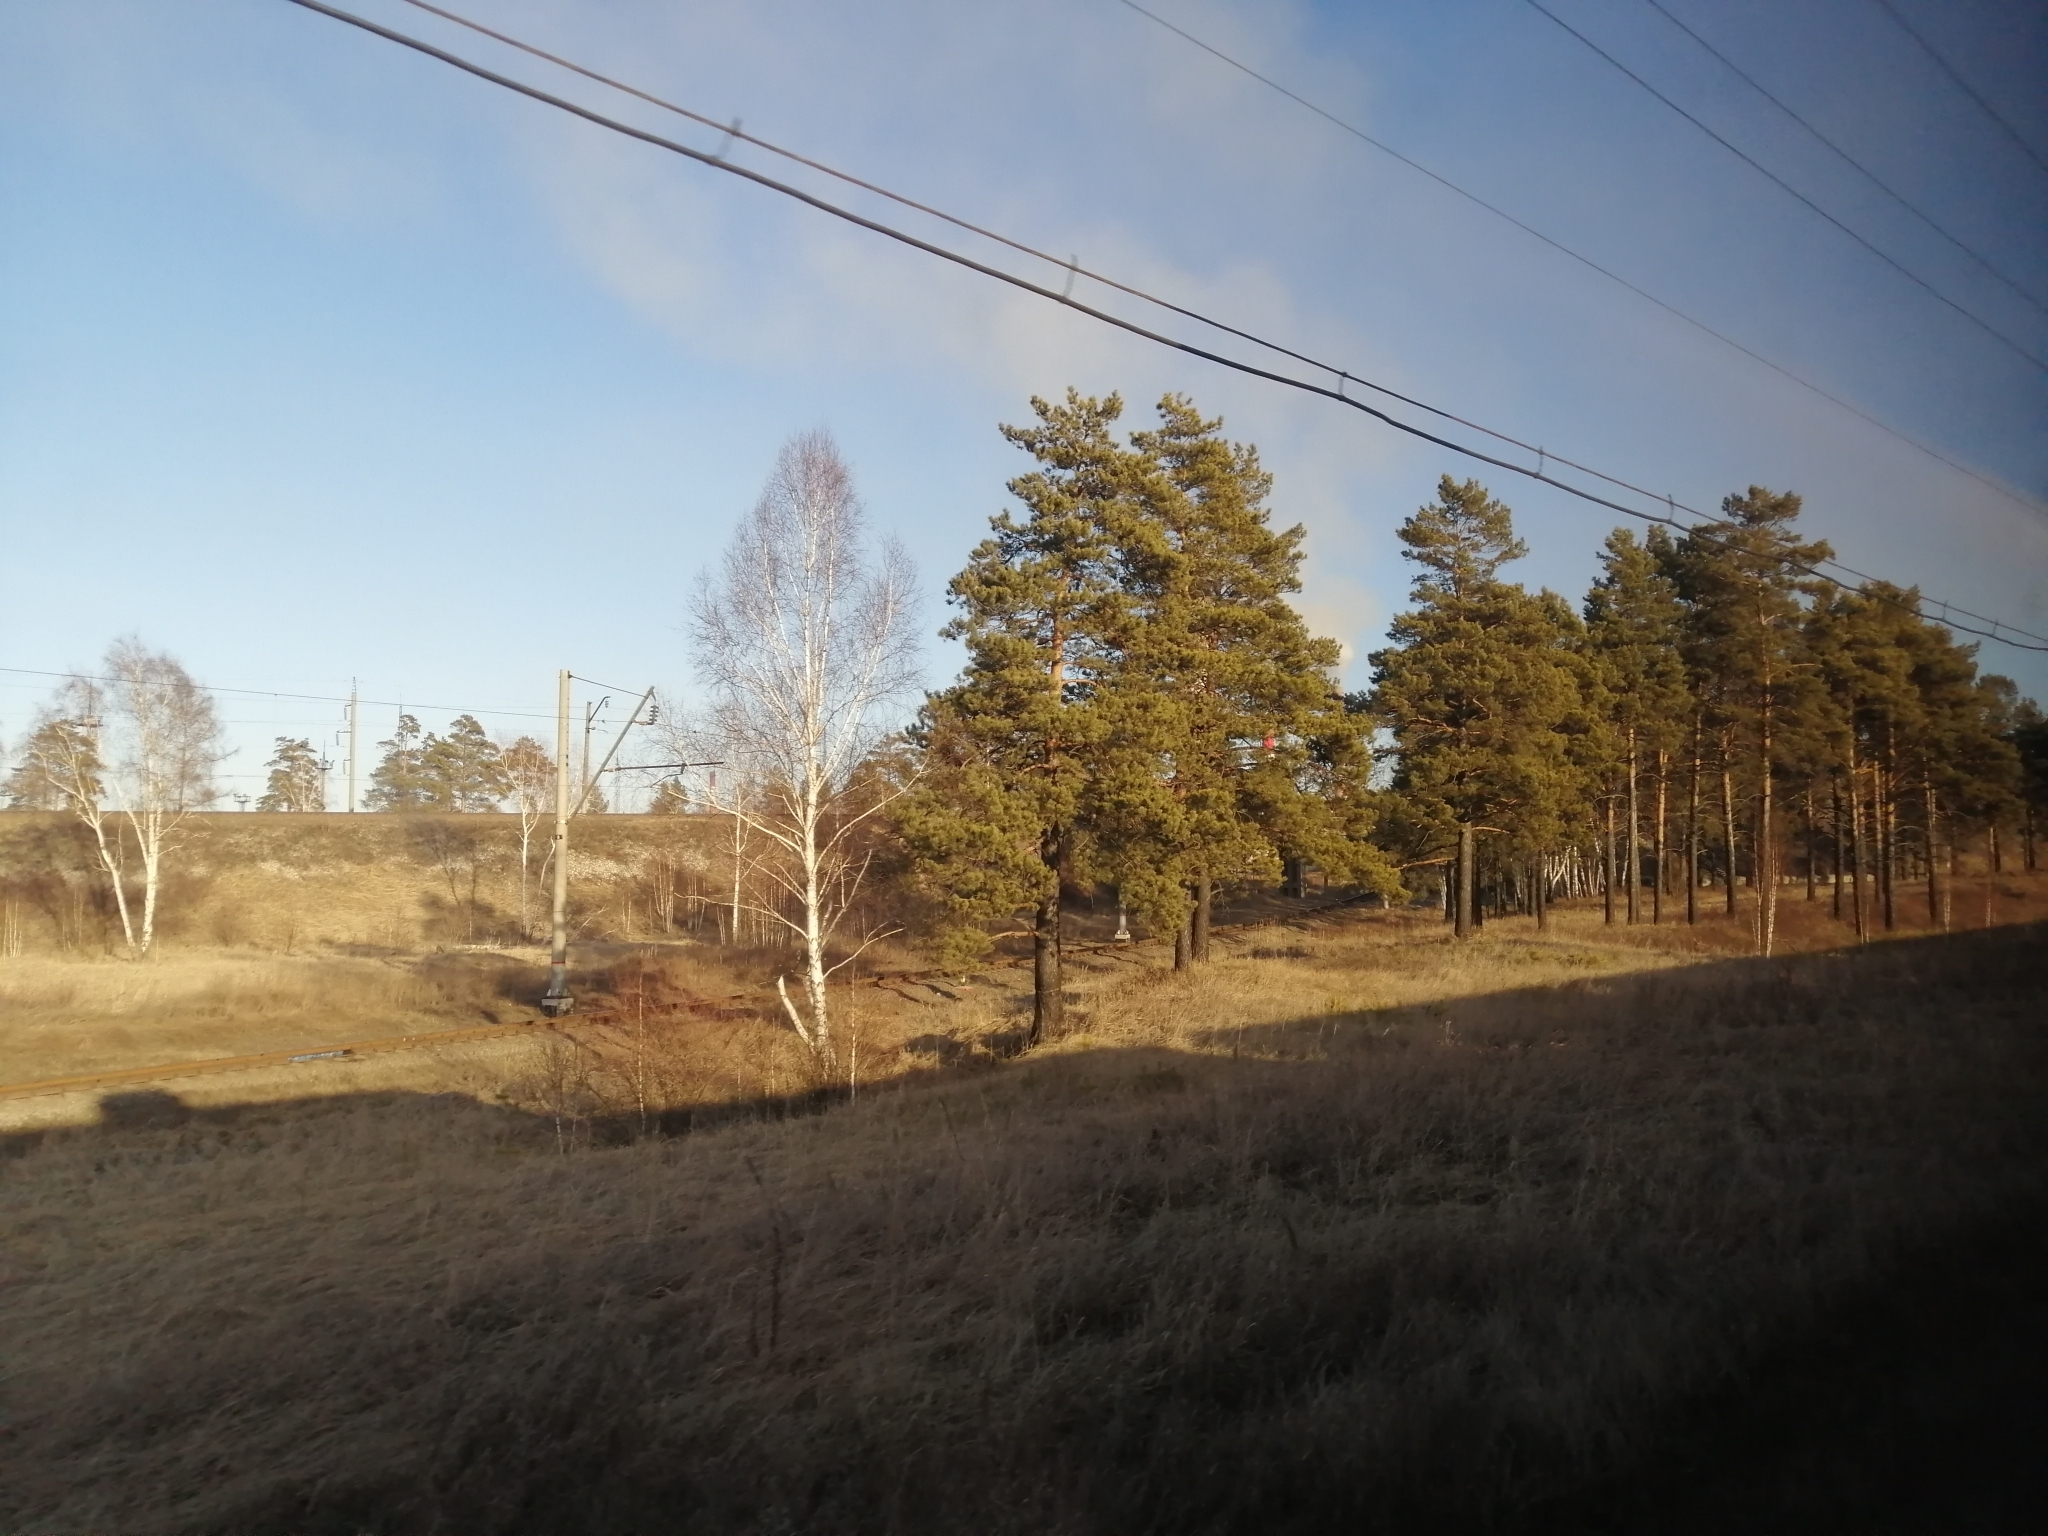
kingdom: Plantae
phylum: Tracheophyta
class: Pinopsida
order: Pinales
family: Pinaceae
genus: Pinus
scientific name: Pinus sylvestris
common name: Scots pine
